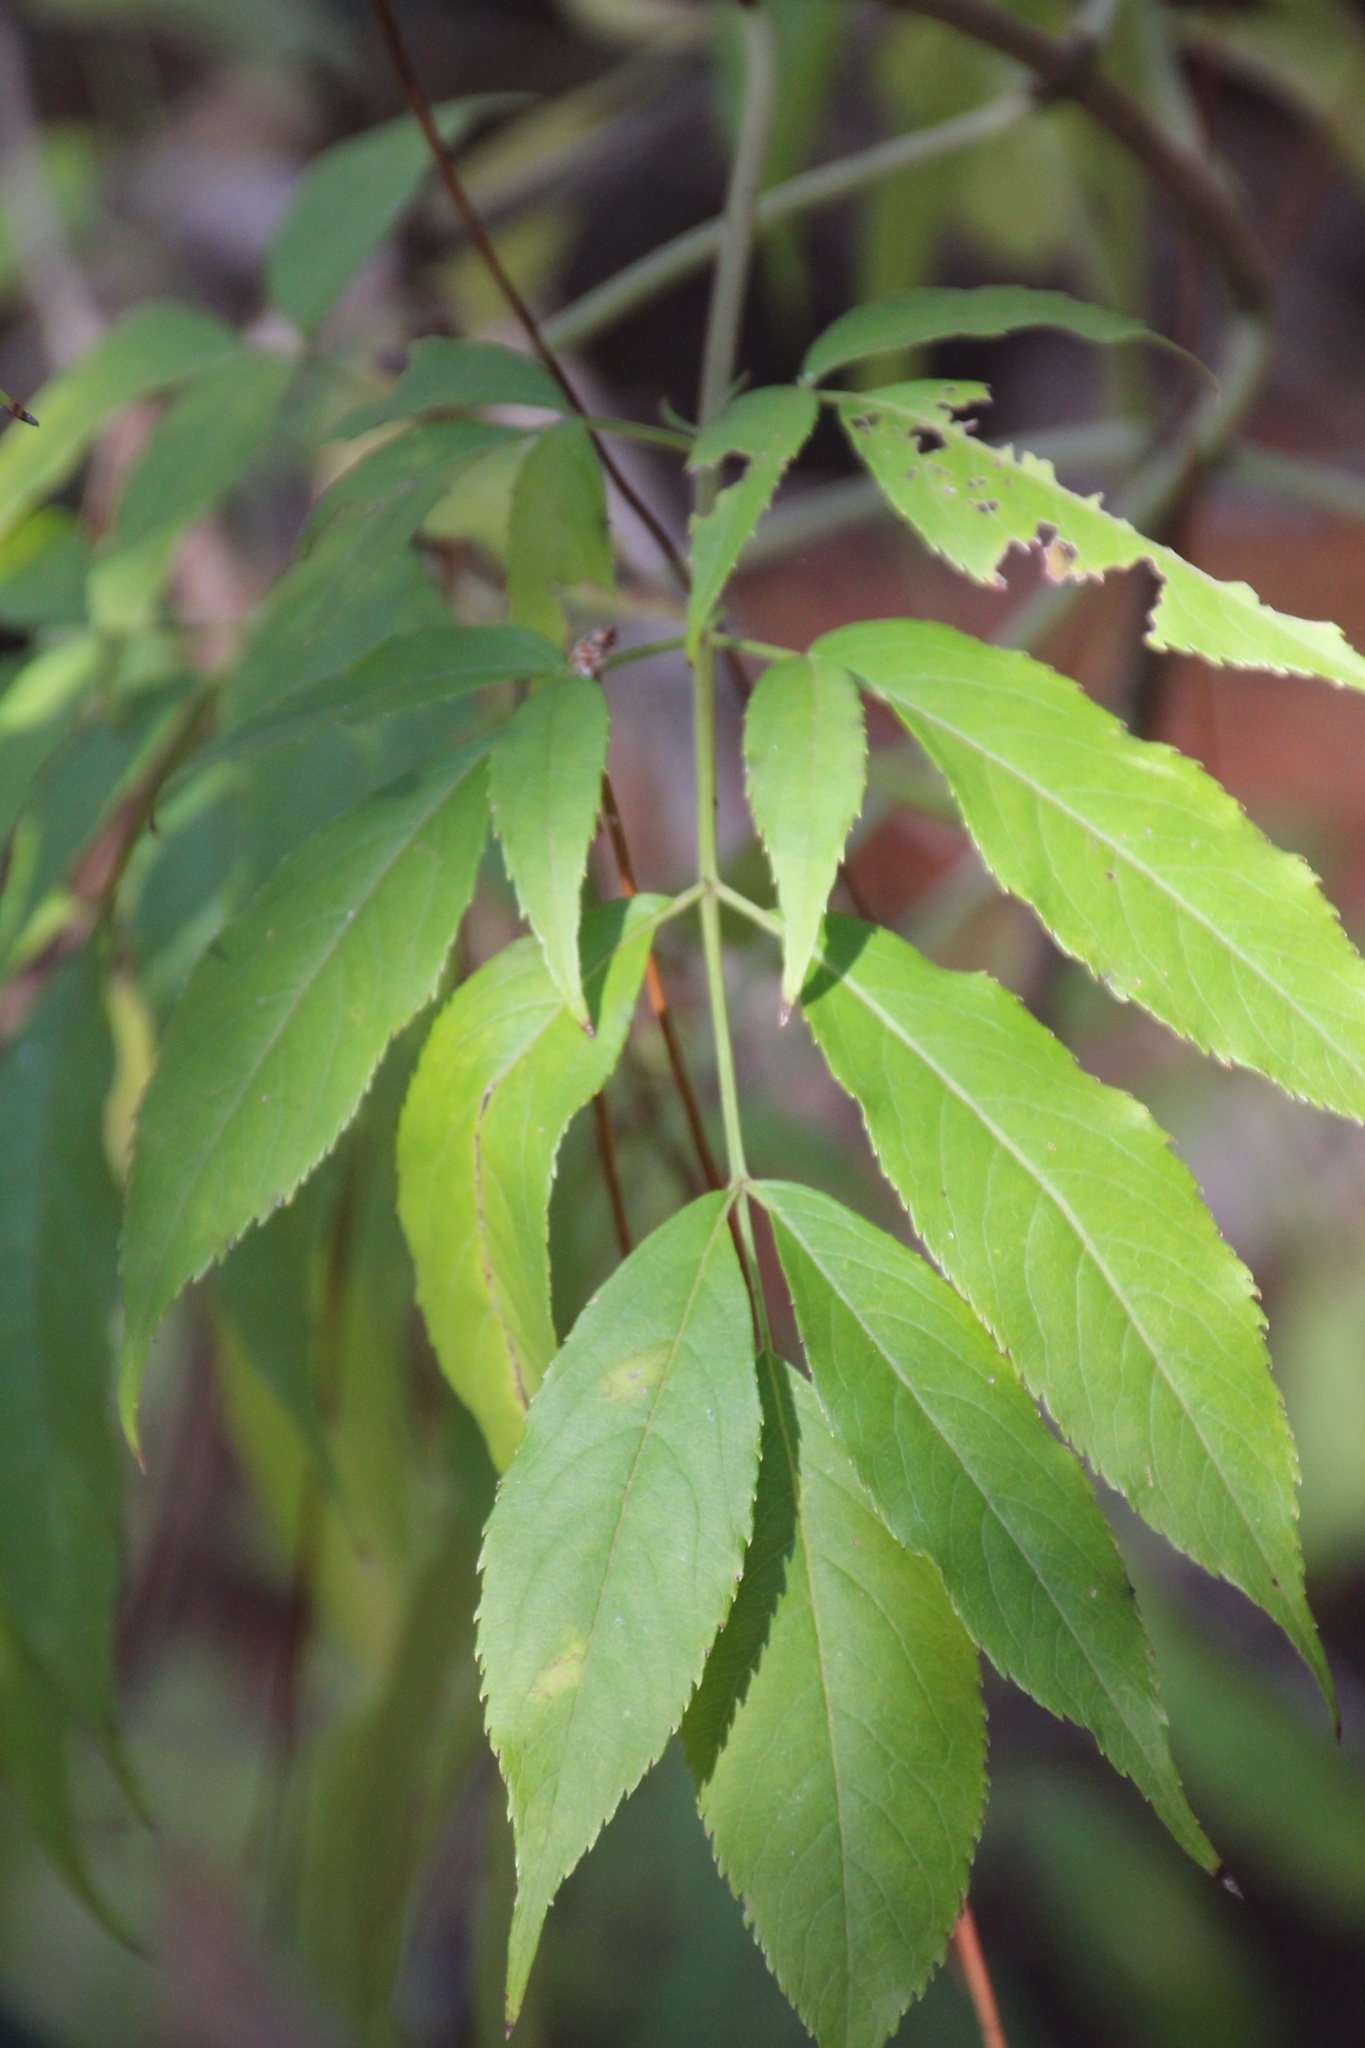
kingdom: Plantae
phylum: Tracheophyta
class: Magnoliopsida
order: Dipsacales
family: Viburnaceae
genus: Sambucus
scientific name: Sambucus canadensis
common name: American elder
